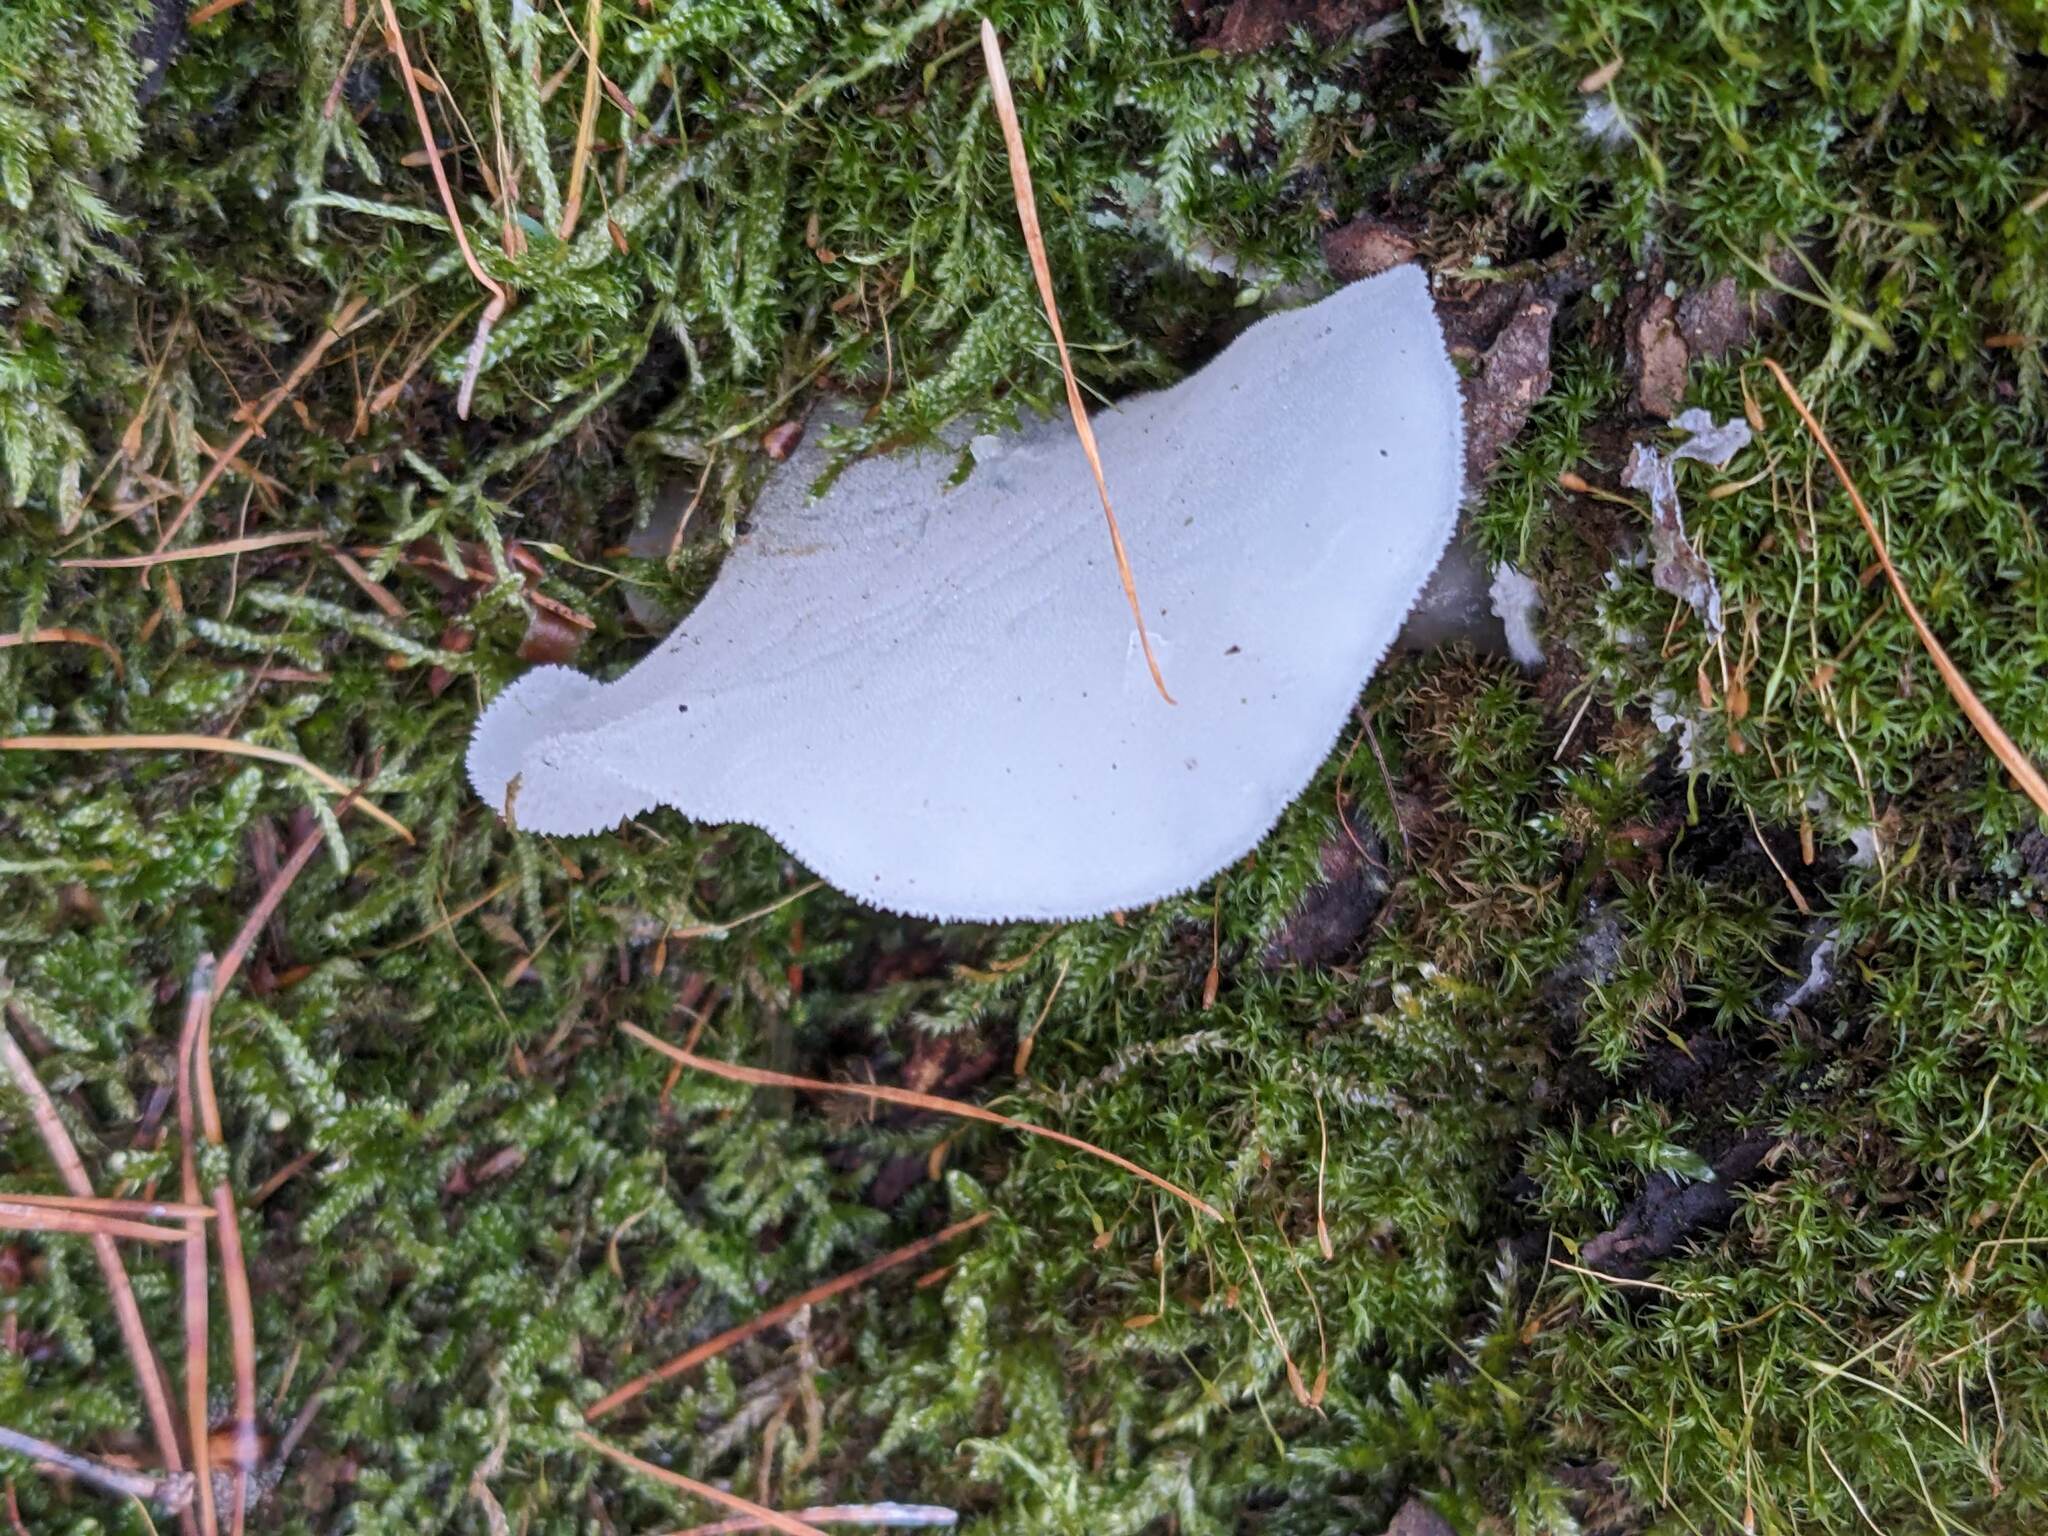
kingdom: Fungi
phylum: Basidiomycota
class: Agaricomycetes
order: Auriculariales
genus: Pseudohydnum
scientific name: Pseudohydnum gelatinosum
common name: Jelly tongue
